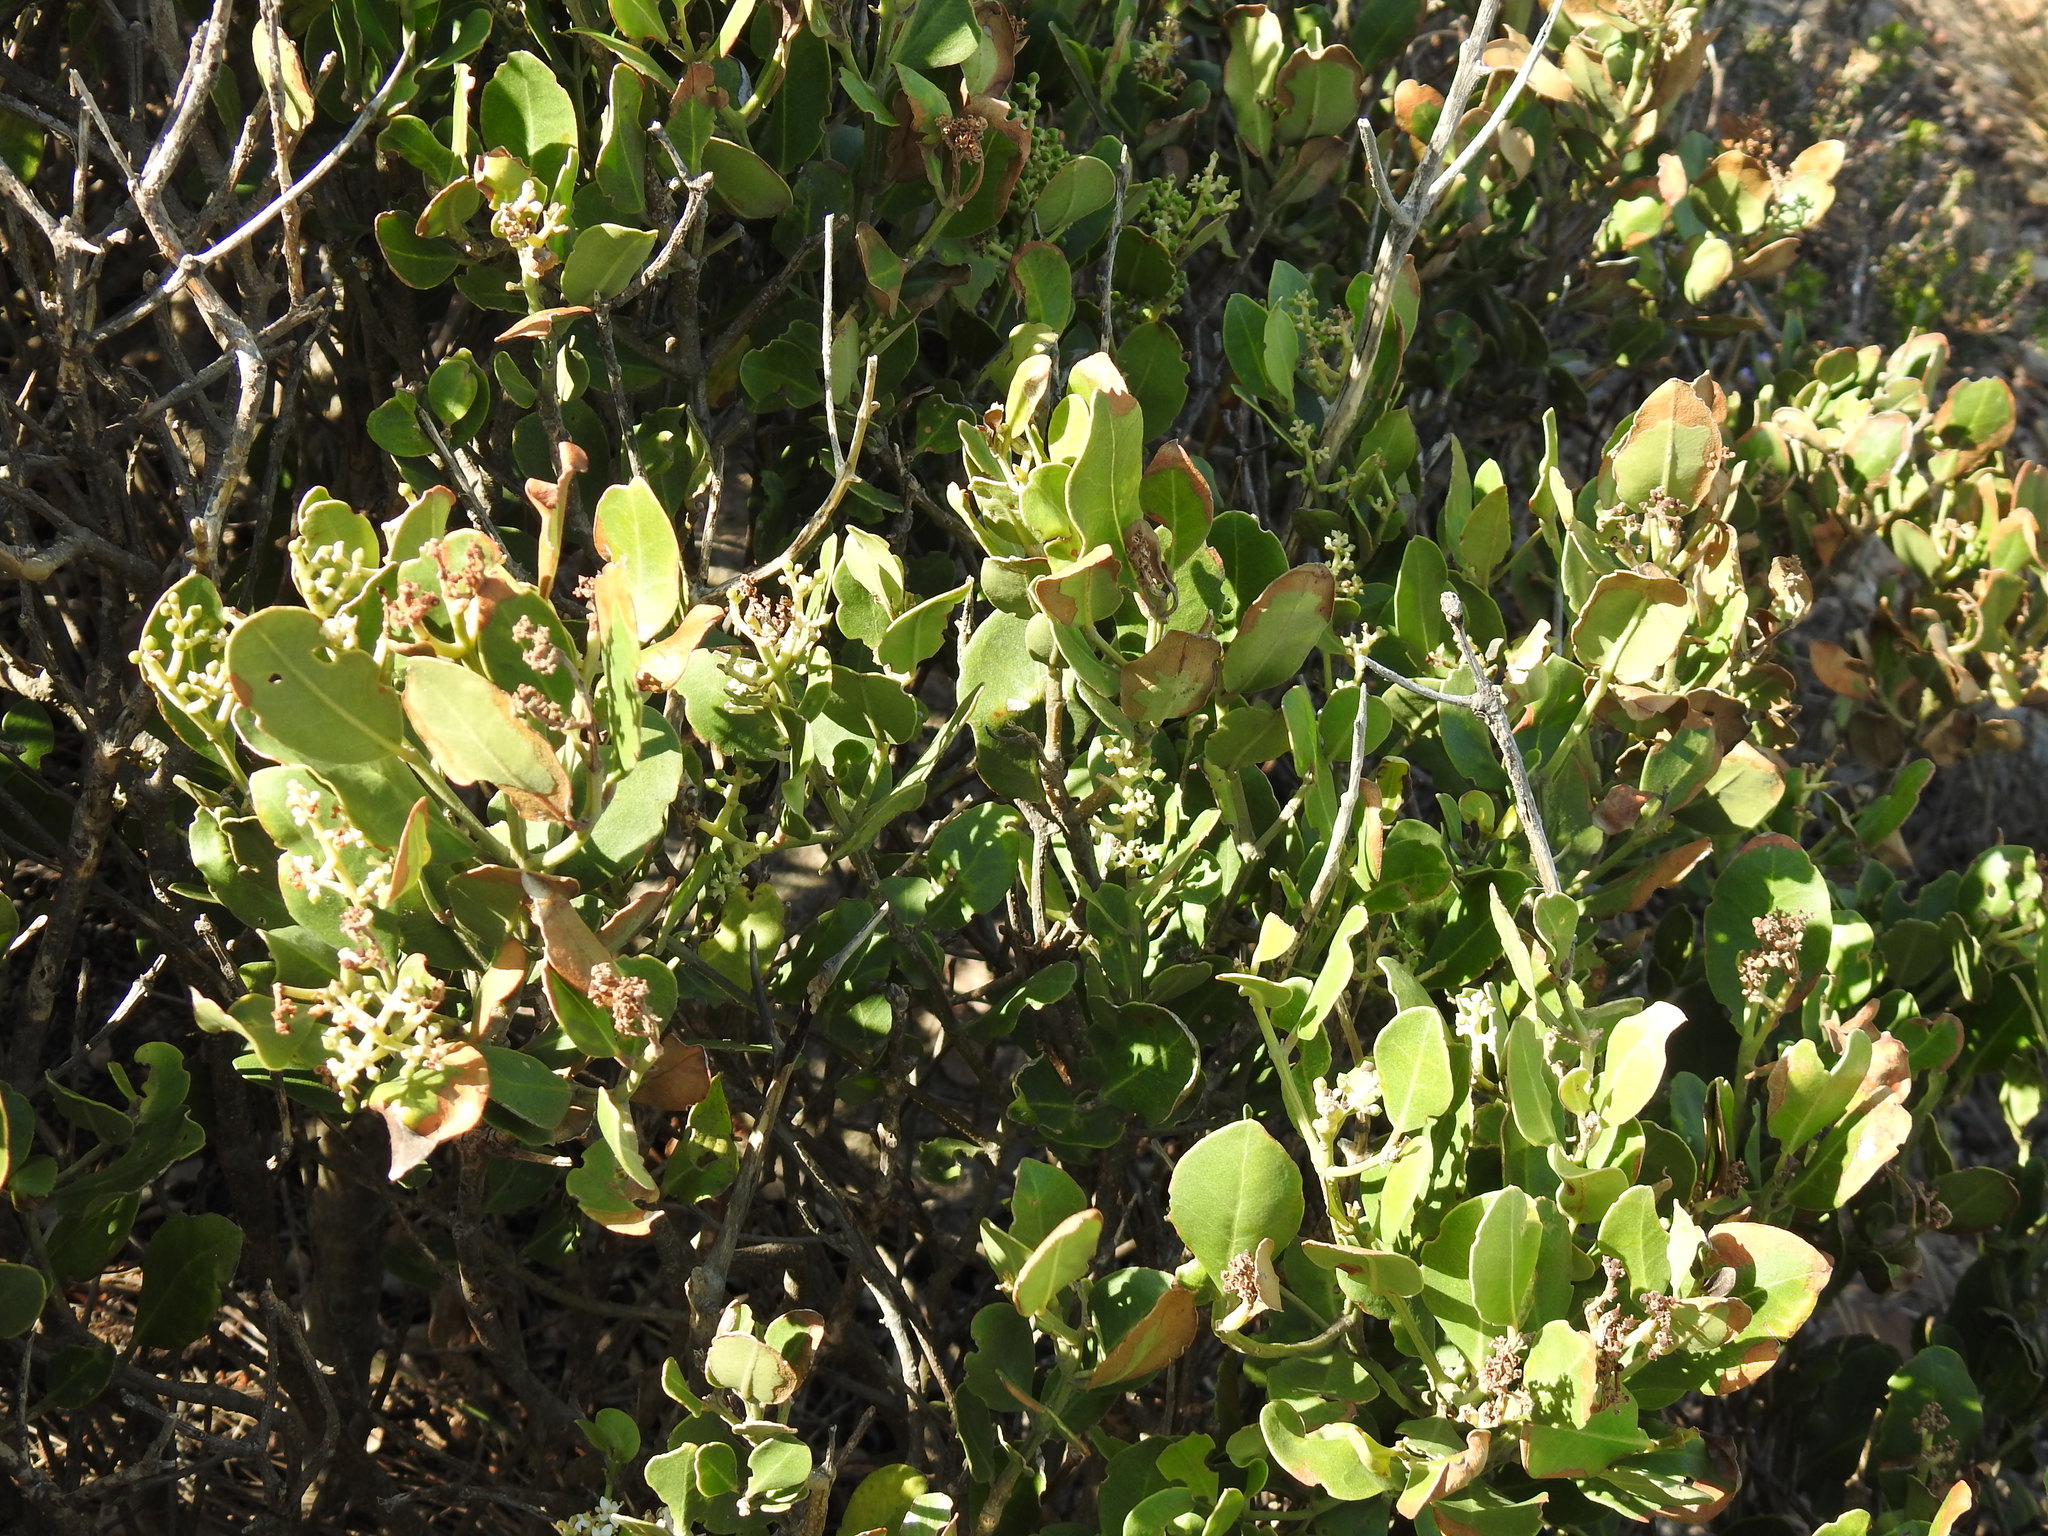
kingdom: Plantae
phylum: Tracheophyta
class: Magnoliopsida
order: Celastrales
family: Celastraceae
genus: Robsonodendron
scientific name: Robsonodendron maritimum
